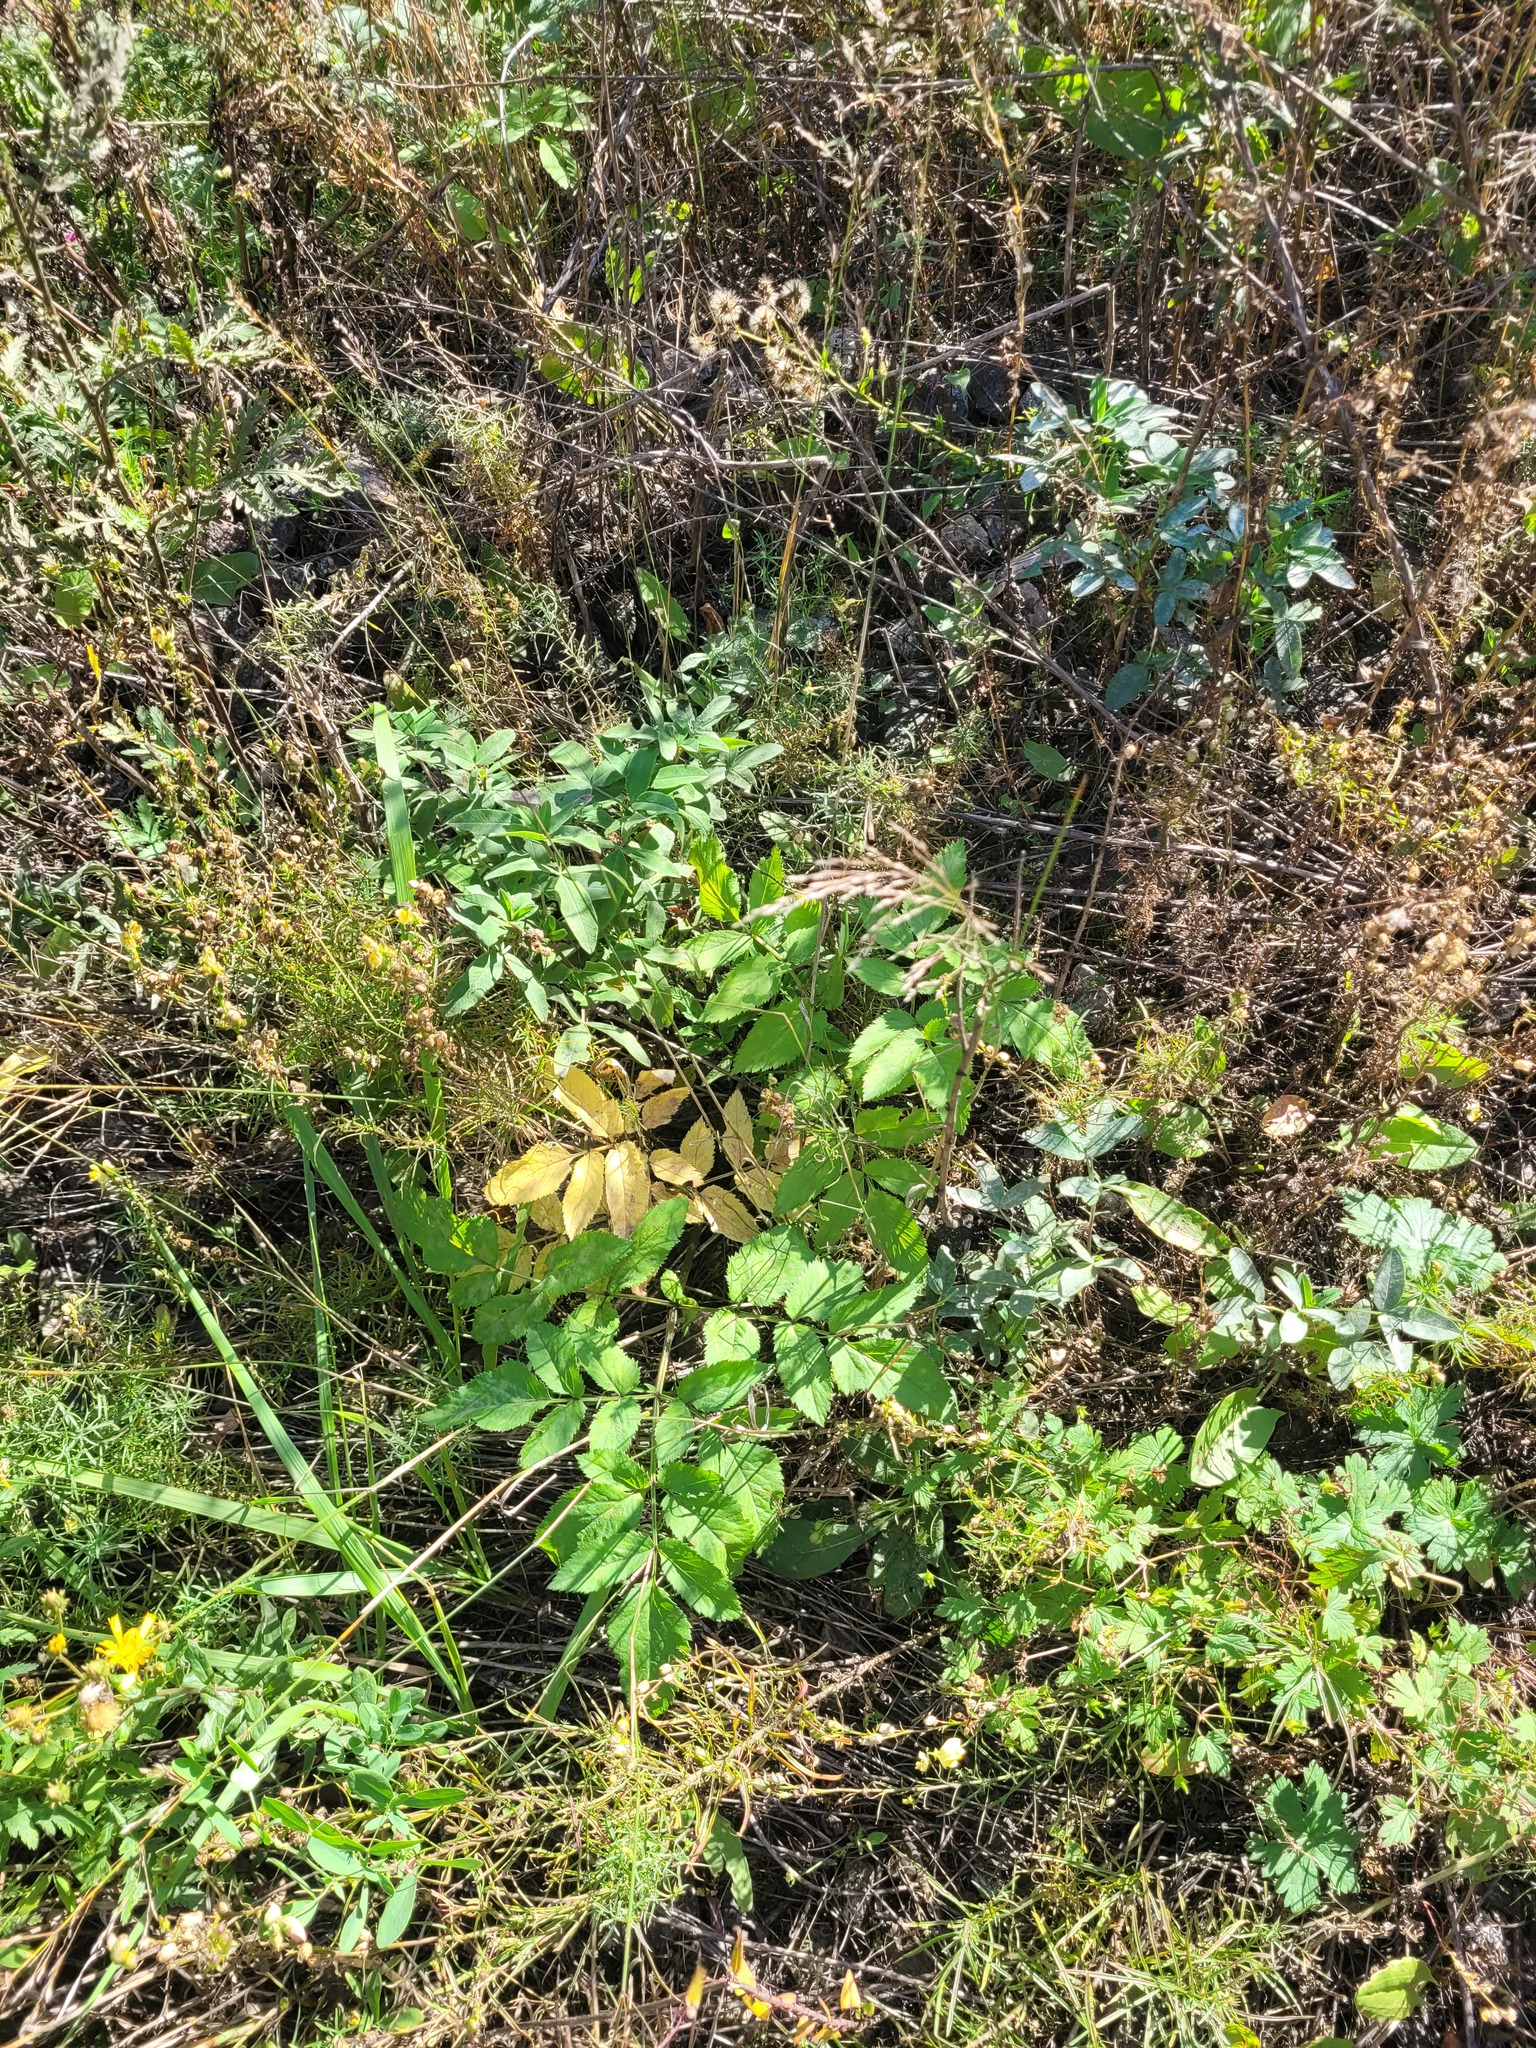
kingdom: Plantae
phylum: Tracheophyta
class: Magnoliopsida
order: Apiales
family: Apiaceae
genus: Angelica
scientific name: Angelica sylvestris
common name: Wild angelica
